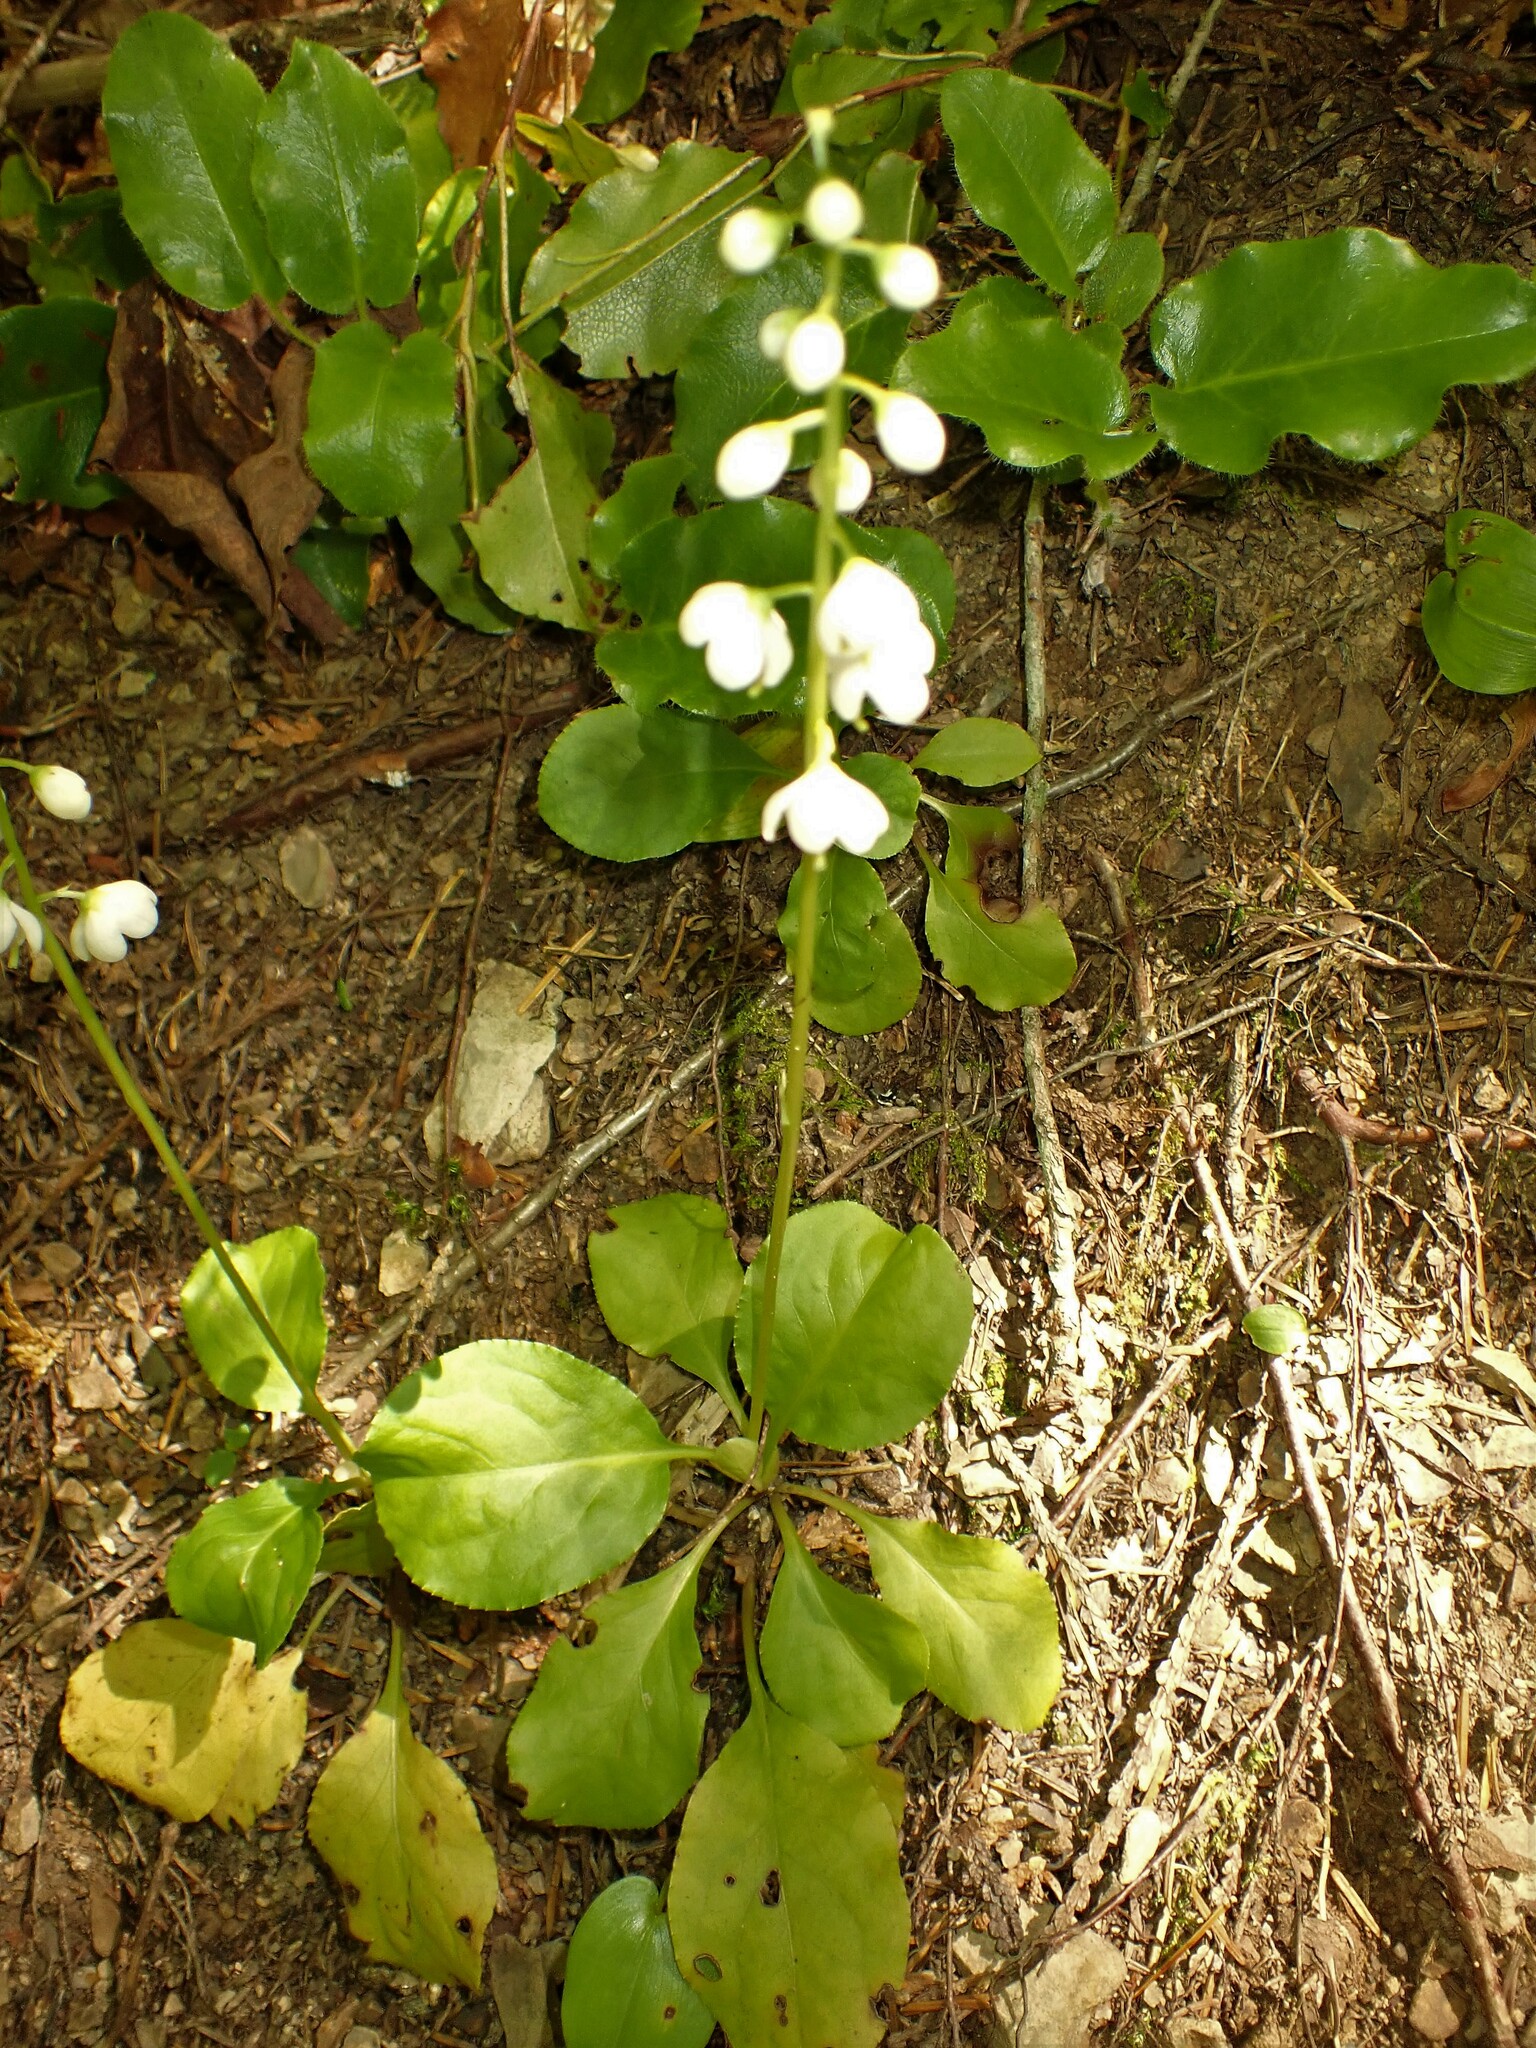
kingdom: Plantae
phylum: Tracheophyta
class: Magnoliopsida
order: Ericales
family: Ericaceae
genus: Pyrola
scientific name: Pyrola elliptica
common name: Shinleaf
